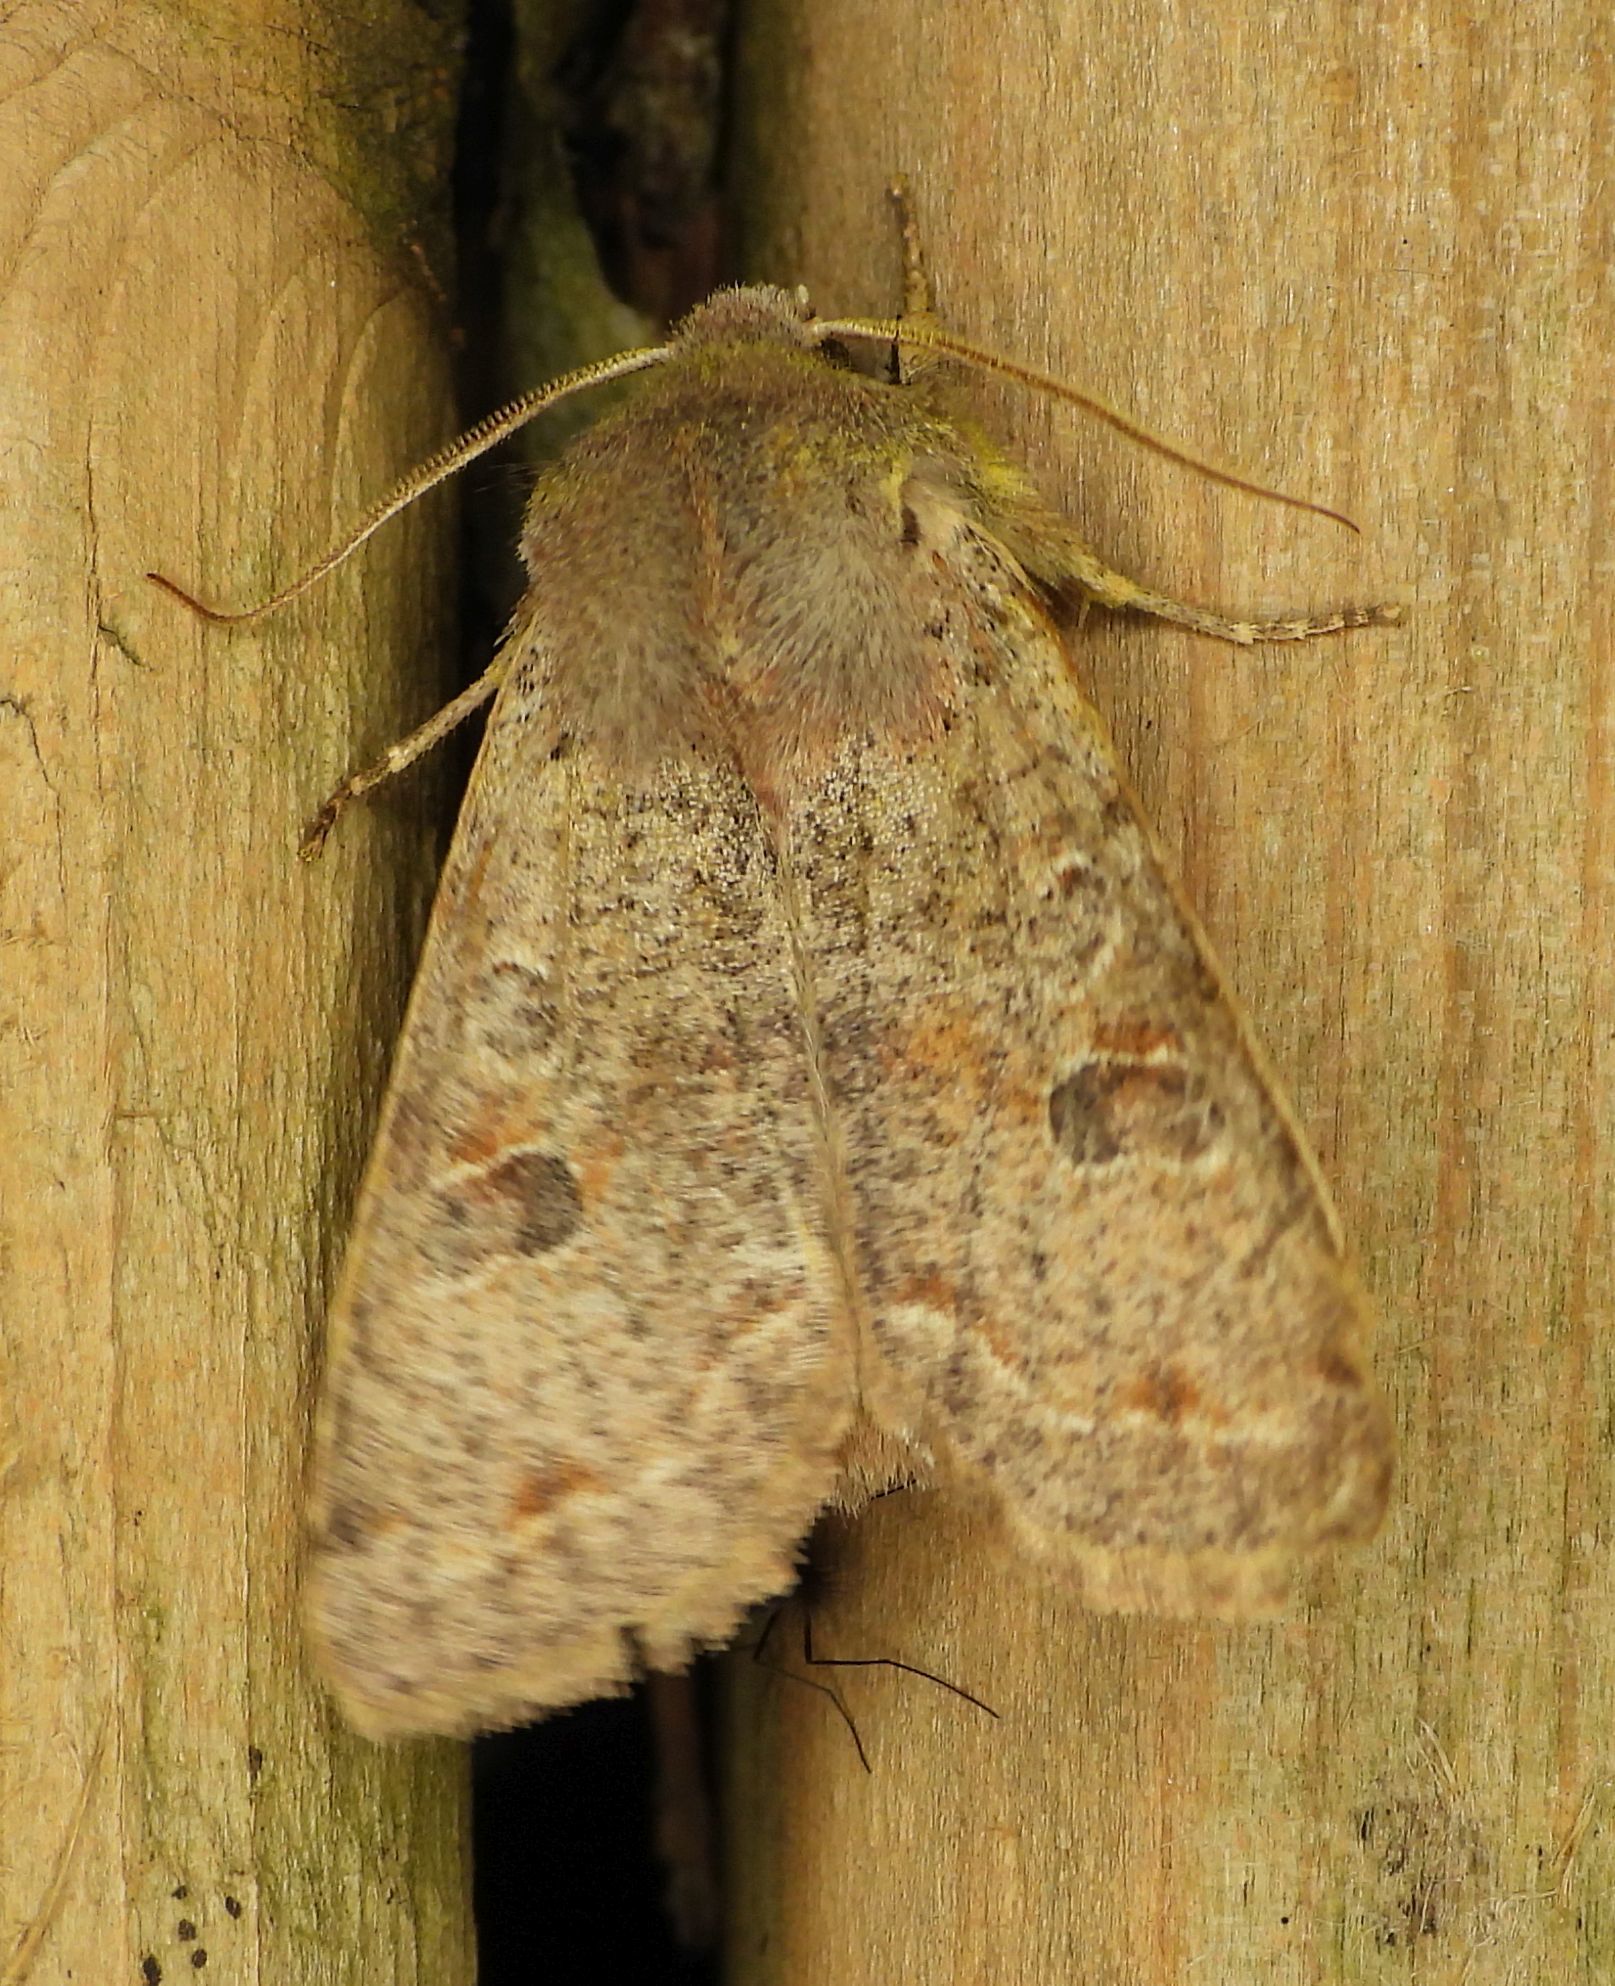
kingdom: Animalia
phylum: Arthropoda
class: Insecta
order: Lepidoptera
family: Noctuidae
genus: Orthosia
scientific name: Orthosia hibisci
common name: Green fruitworm
